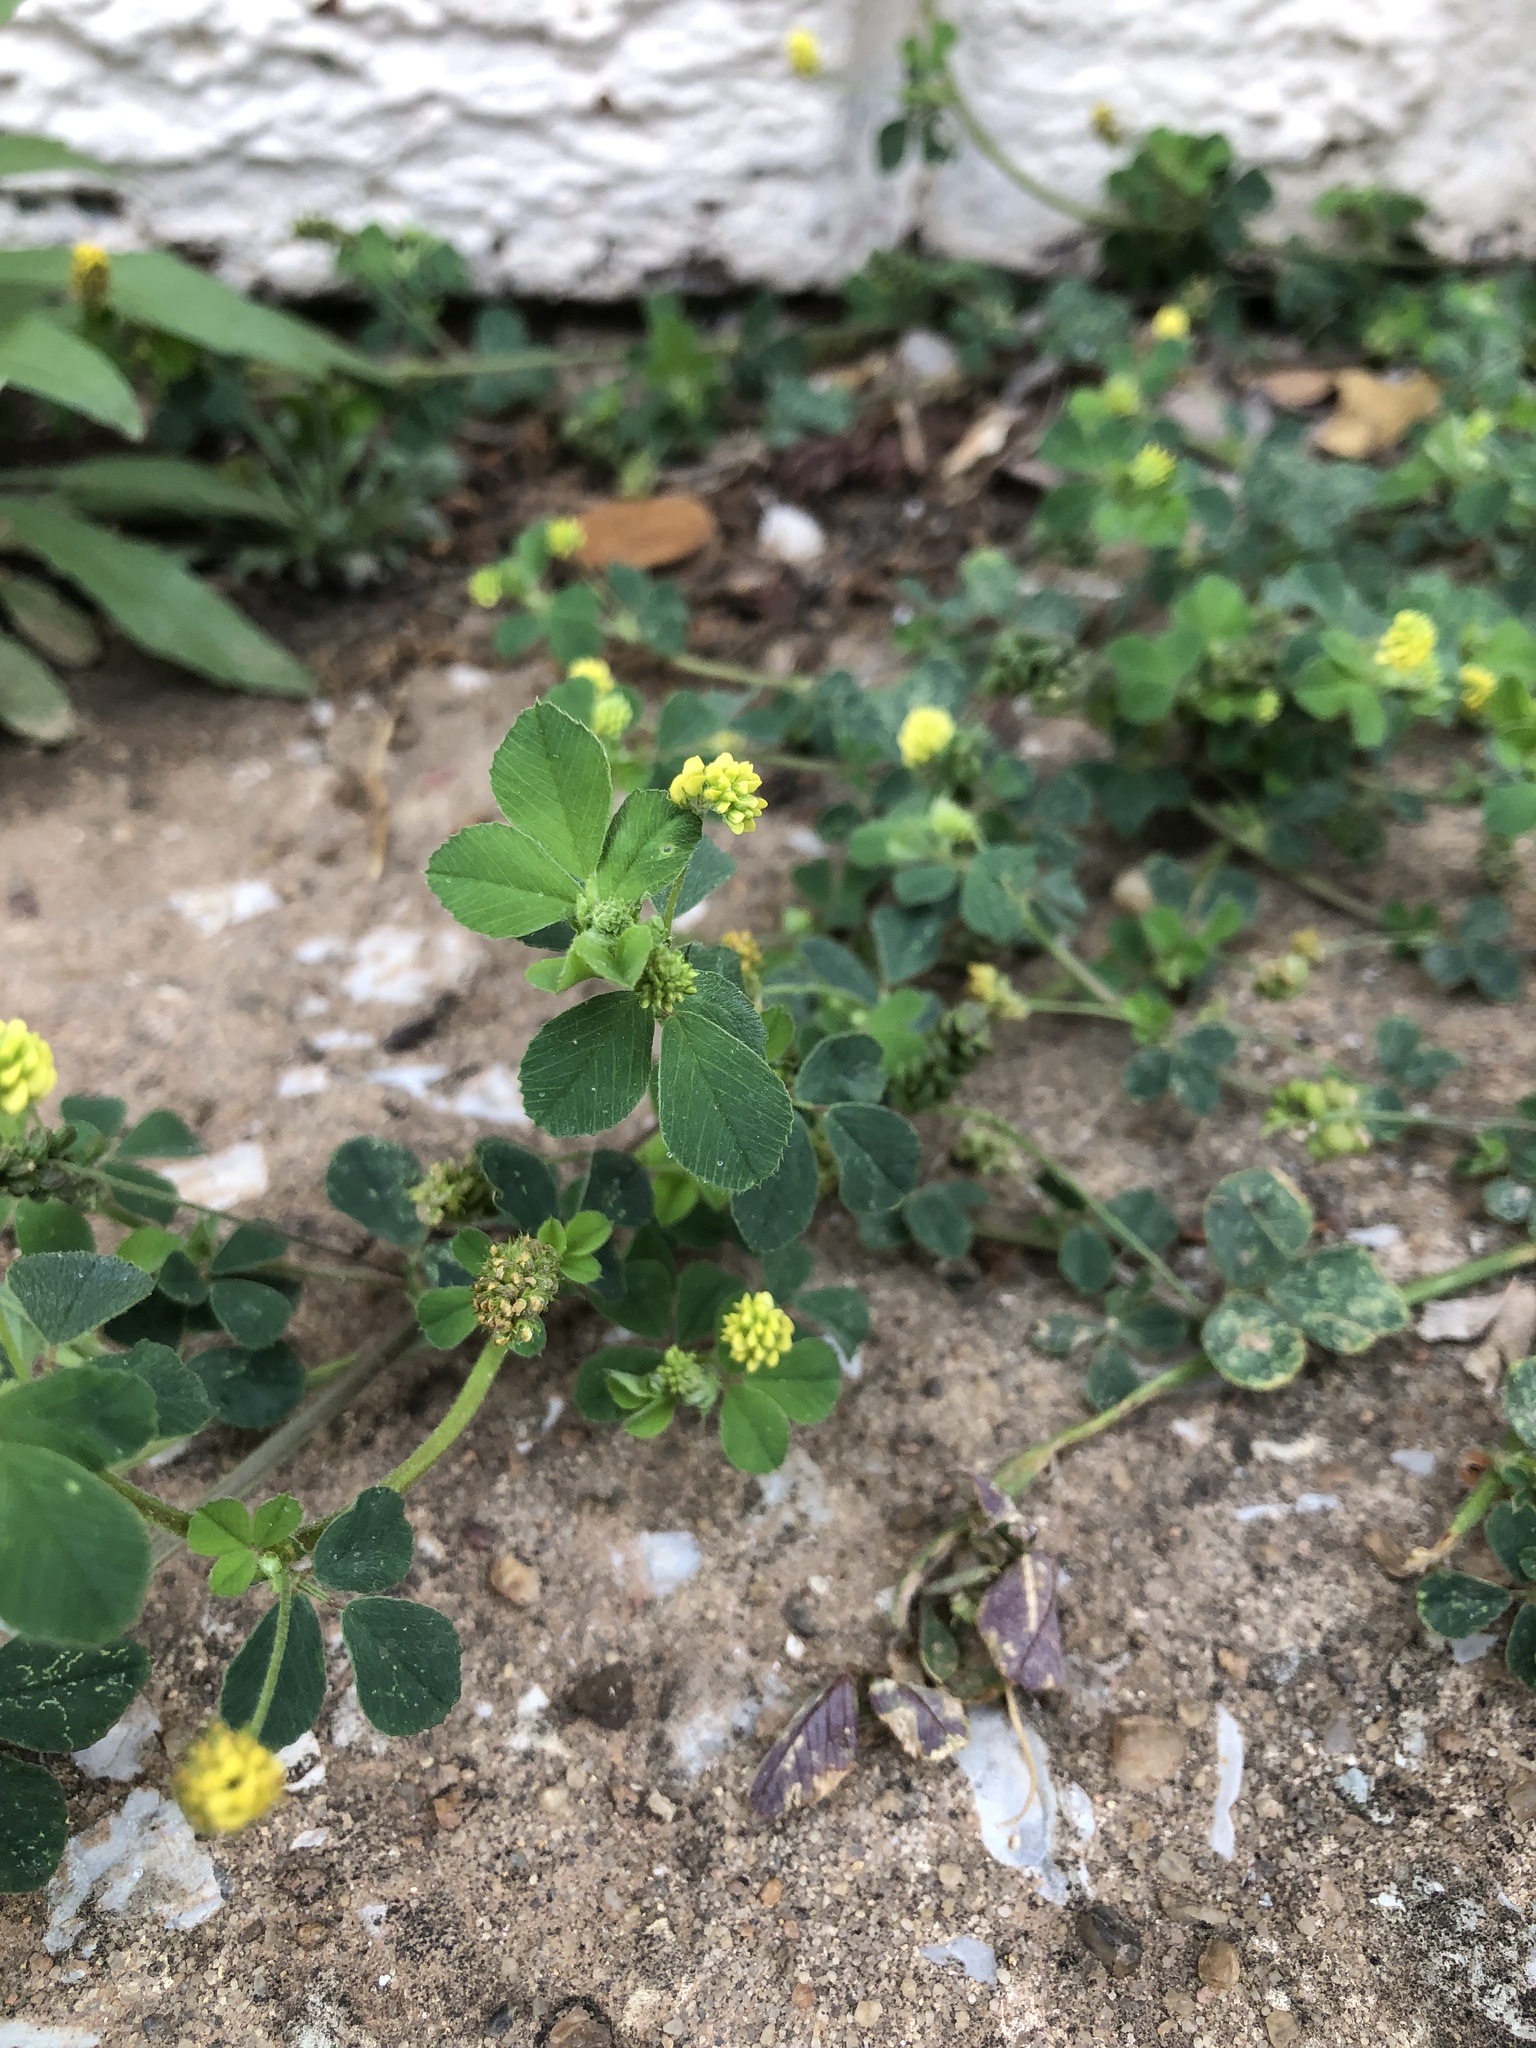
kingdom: Plantae
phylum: Tracheophyta
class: Magnoliopsida
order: Fabales
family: Fabaceae
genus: Medicago
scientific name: Medicago lupulina
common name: Black medick
